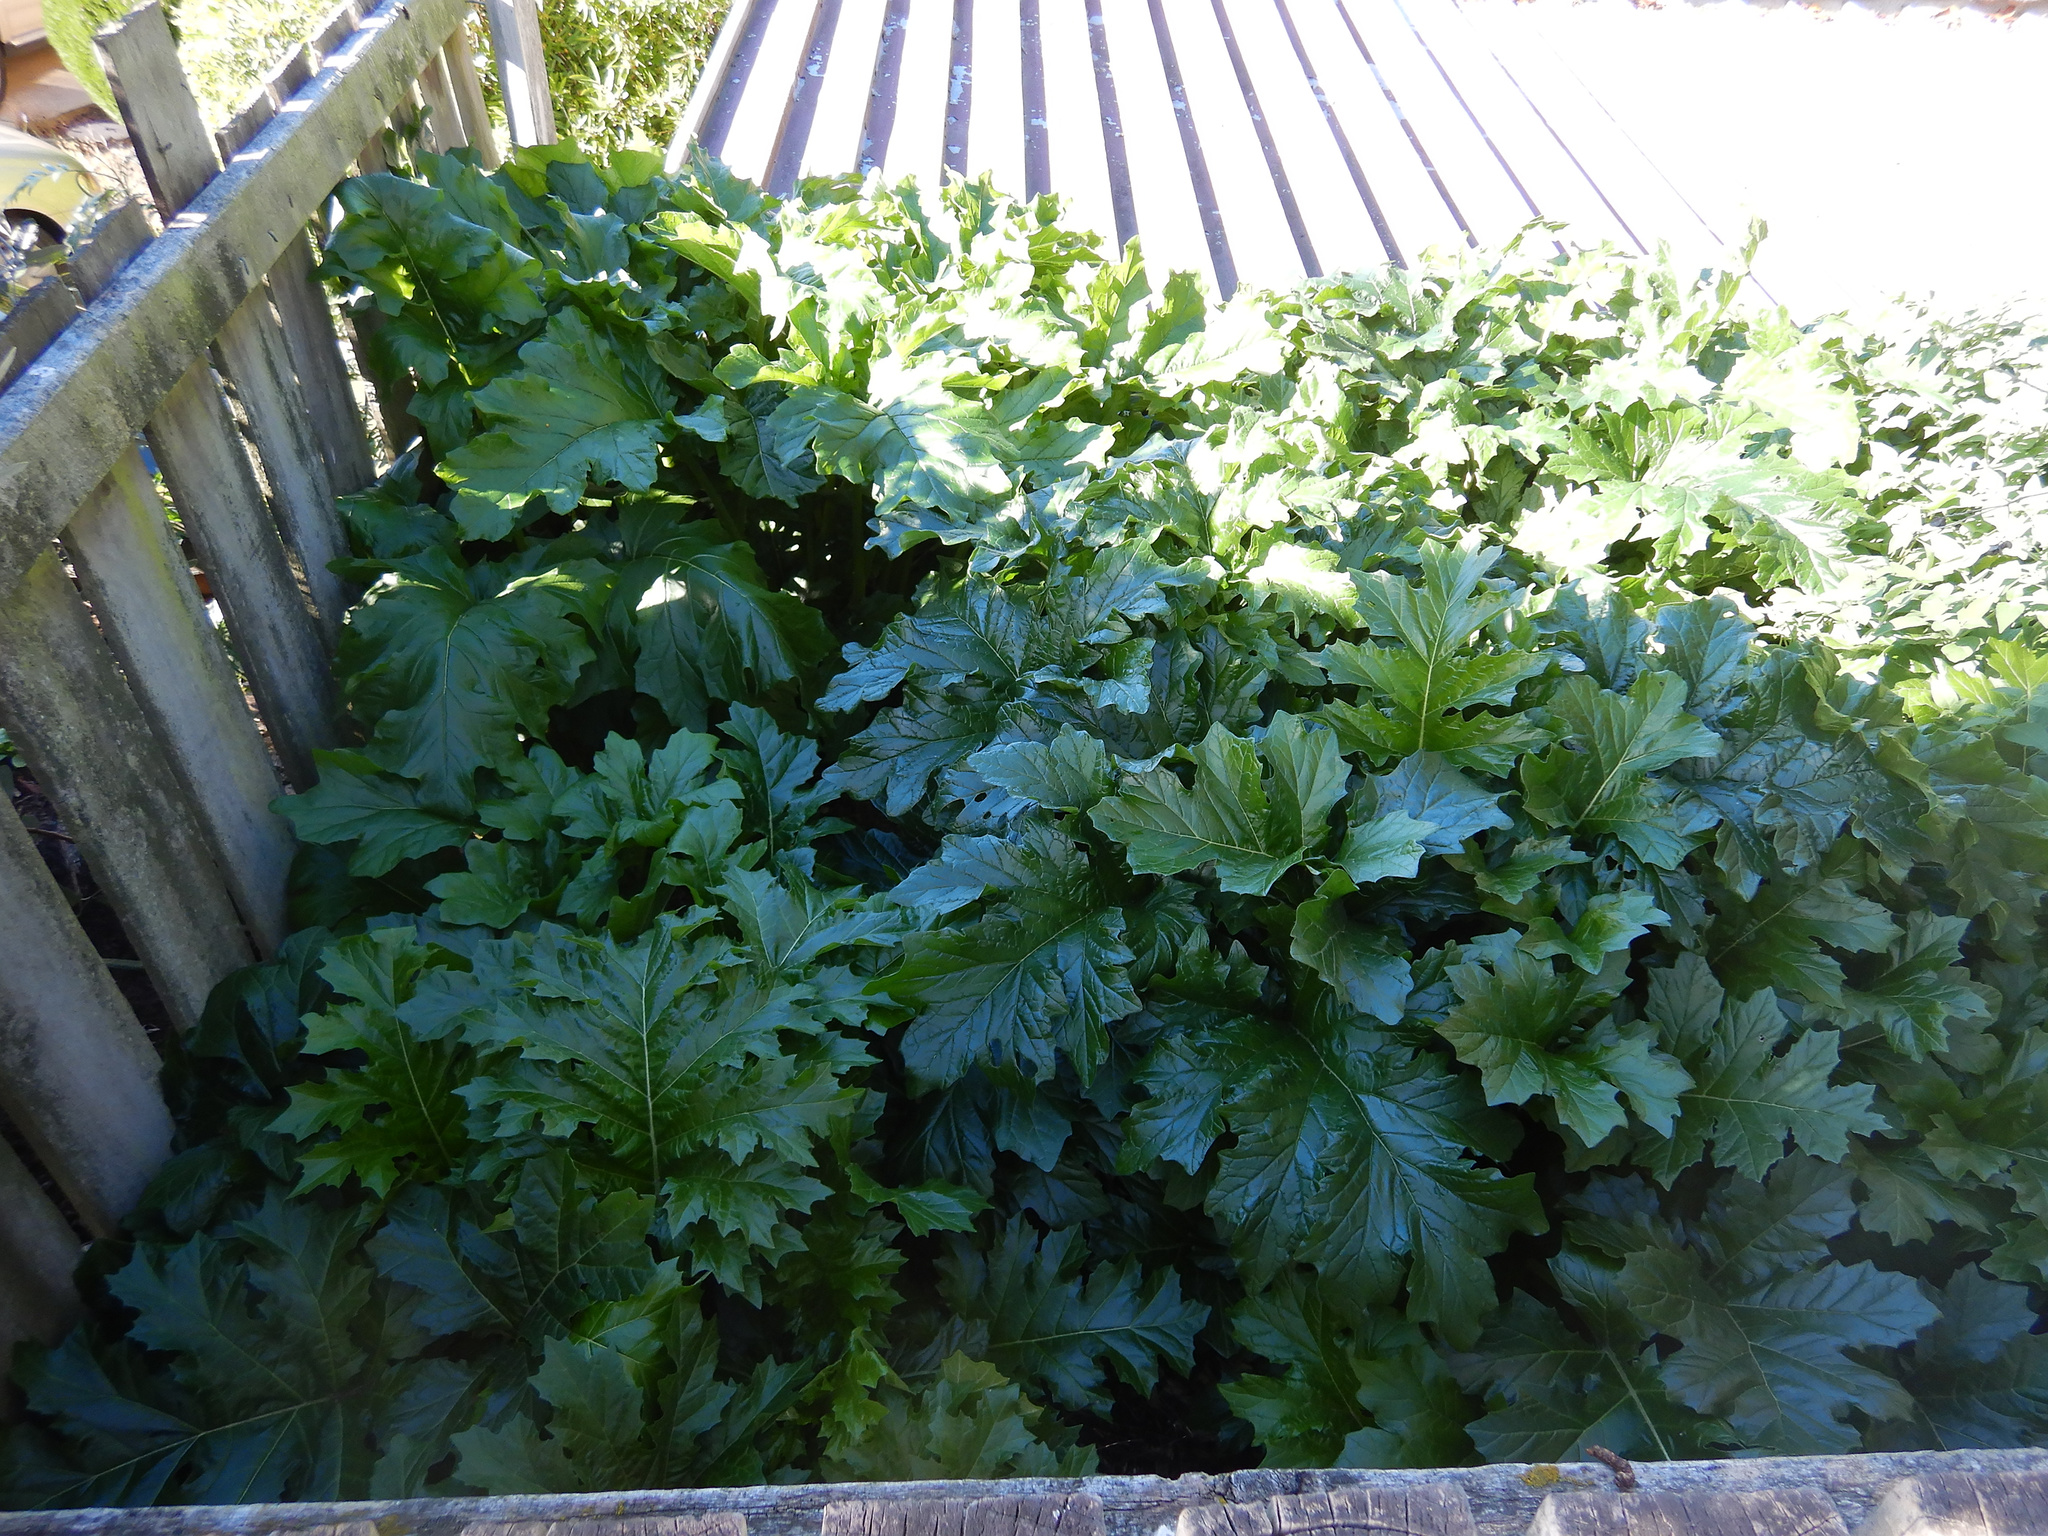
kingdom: Plantae
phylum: Tracheophyta
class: Magnoliopsida
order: Lamiales
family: Acanthaceae
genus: Acanthus
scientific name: Acanthus mollis
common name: Bear's-breech
